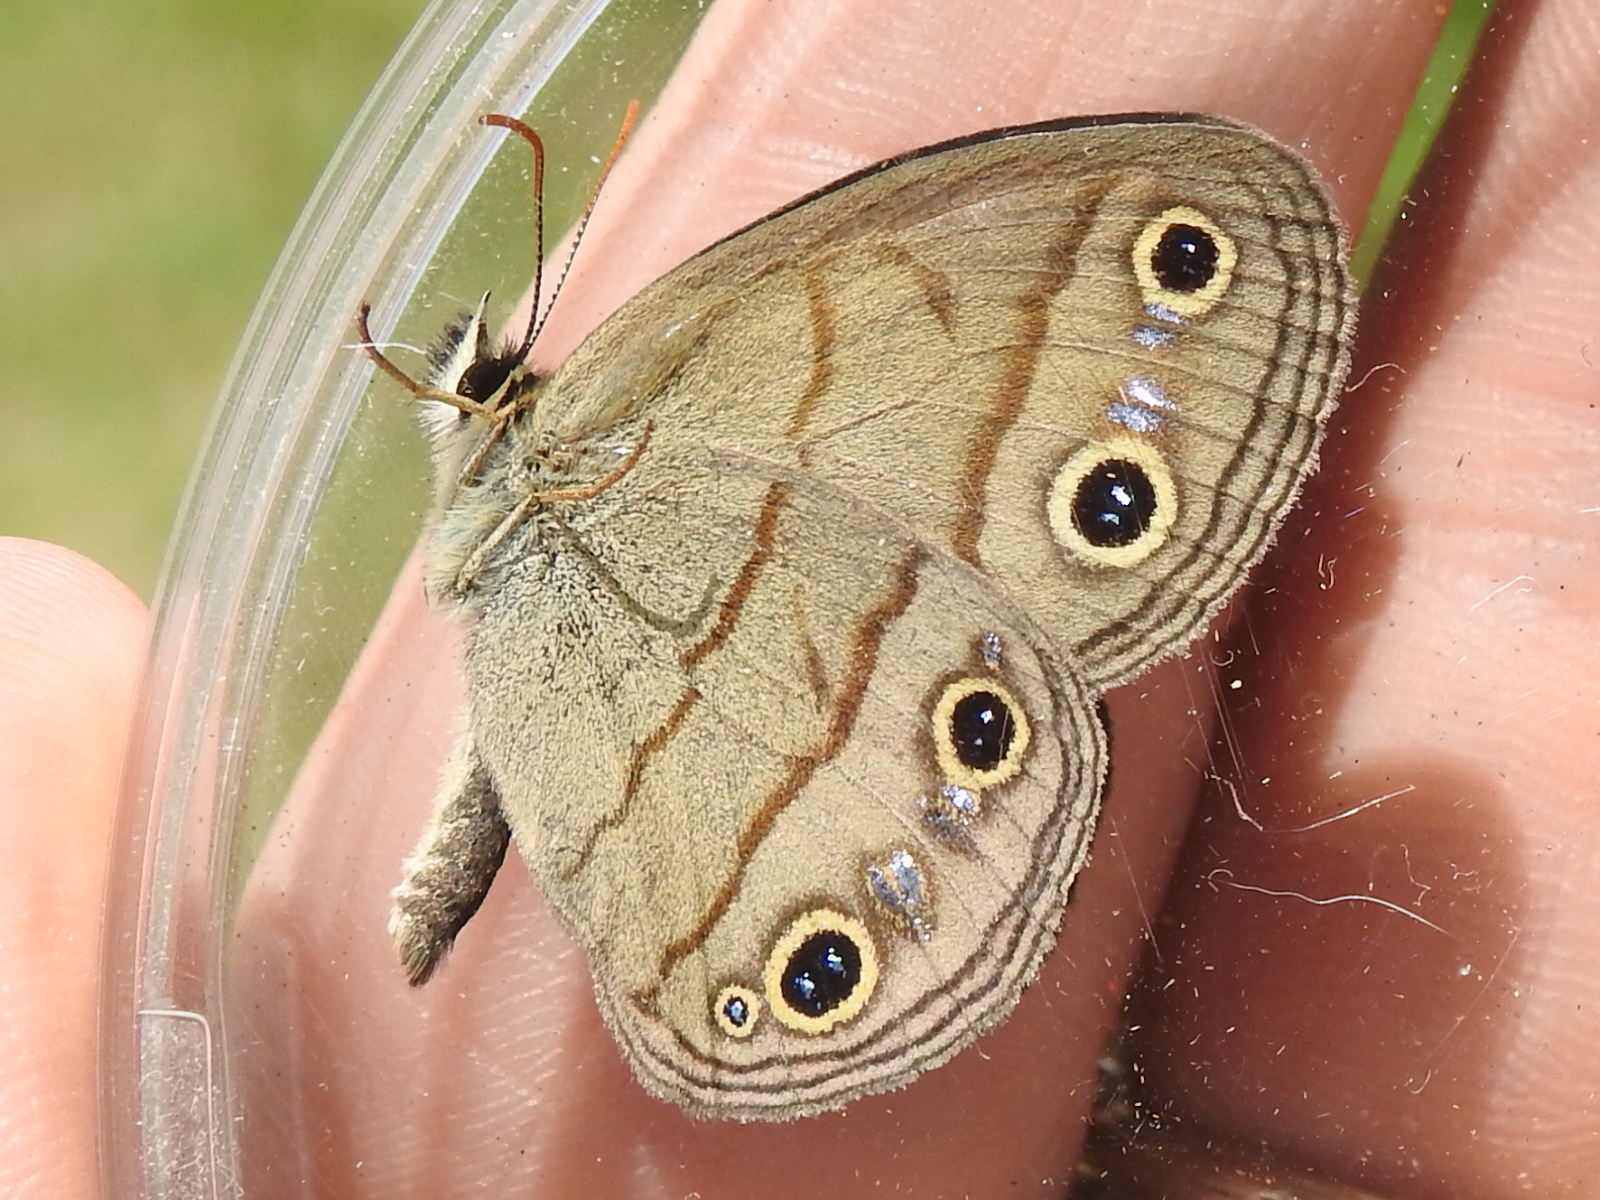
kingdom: Animalia
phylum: Arthropoda
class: Insecta
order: Lepidoptera
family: Nymphalidae
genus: Euptychia
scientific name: Euptychia cymela
